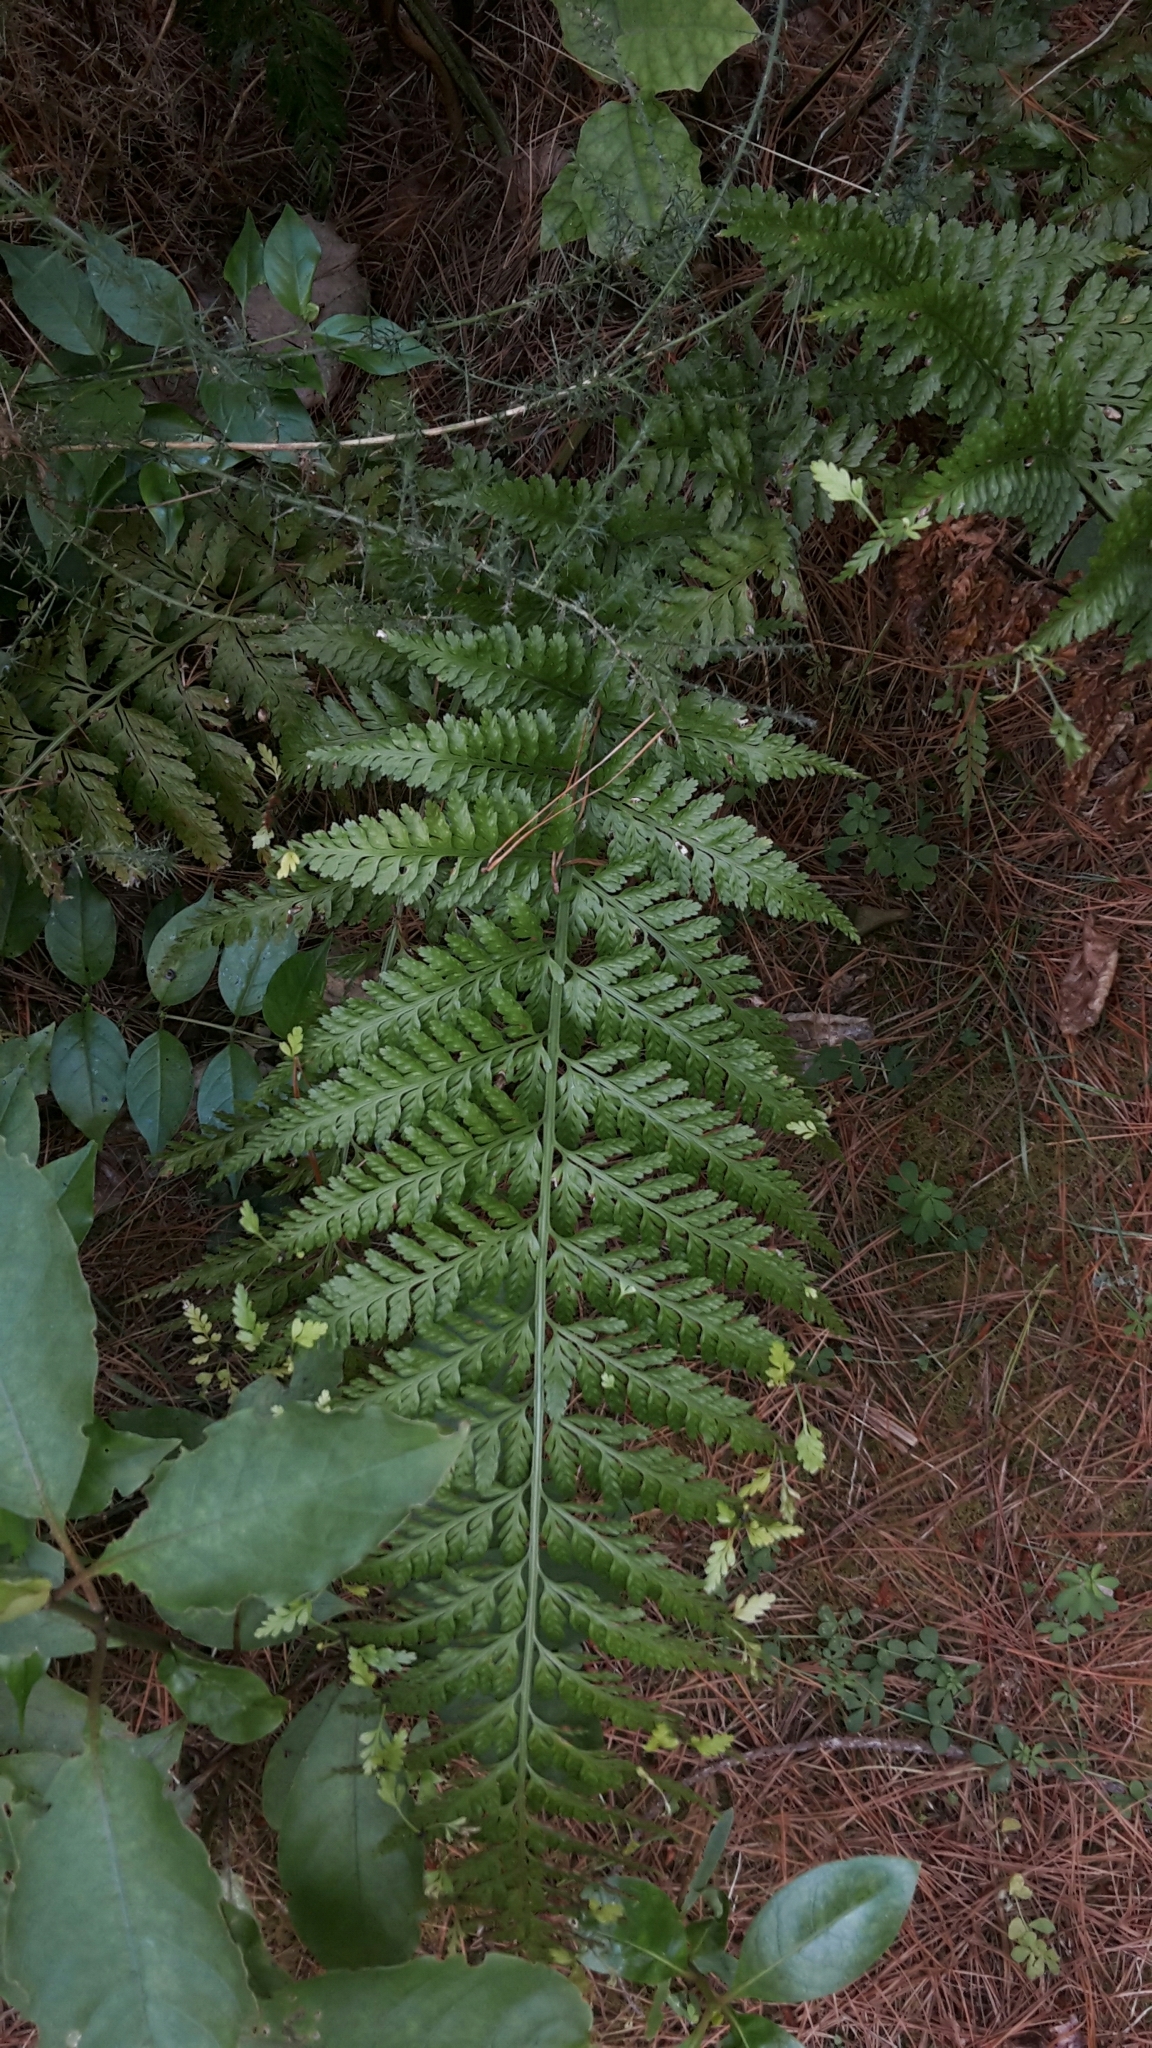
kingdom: Plantae
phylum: Tracheophyta
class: Polypodiopsida
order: Polypodiales
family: Aspleniaceae
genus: Asplenium
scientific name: Asplenium bulbiferum
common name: Mother fern
